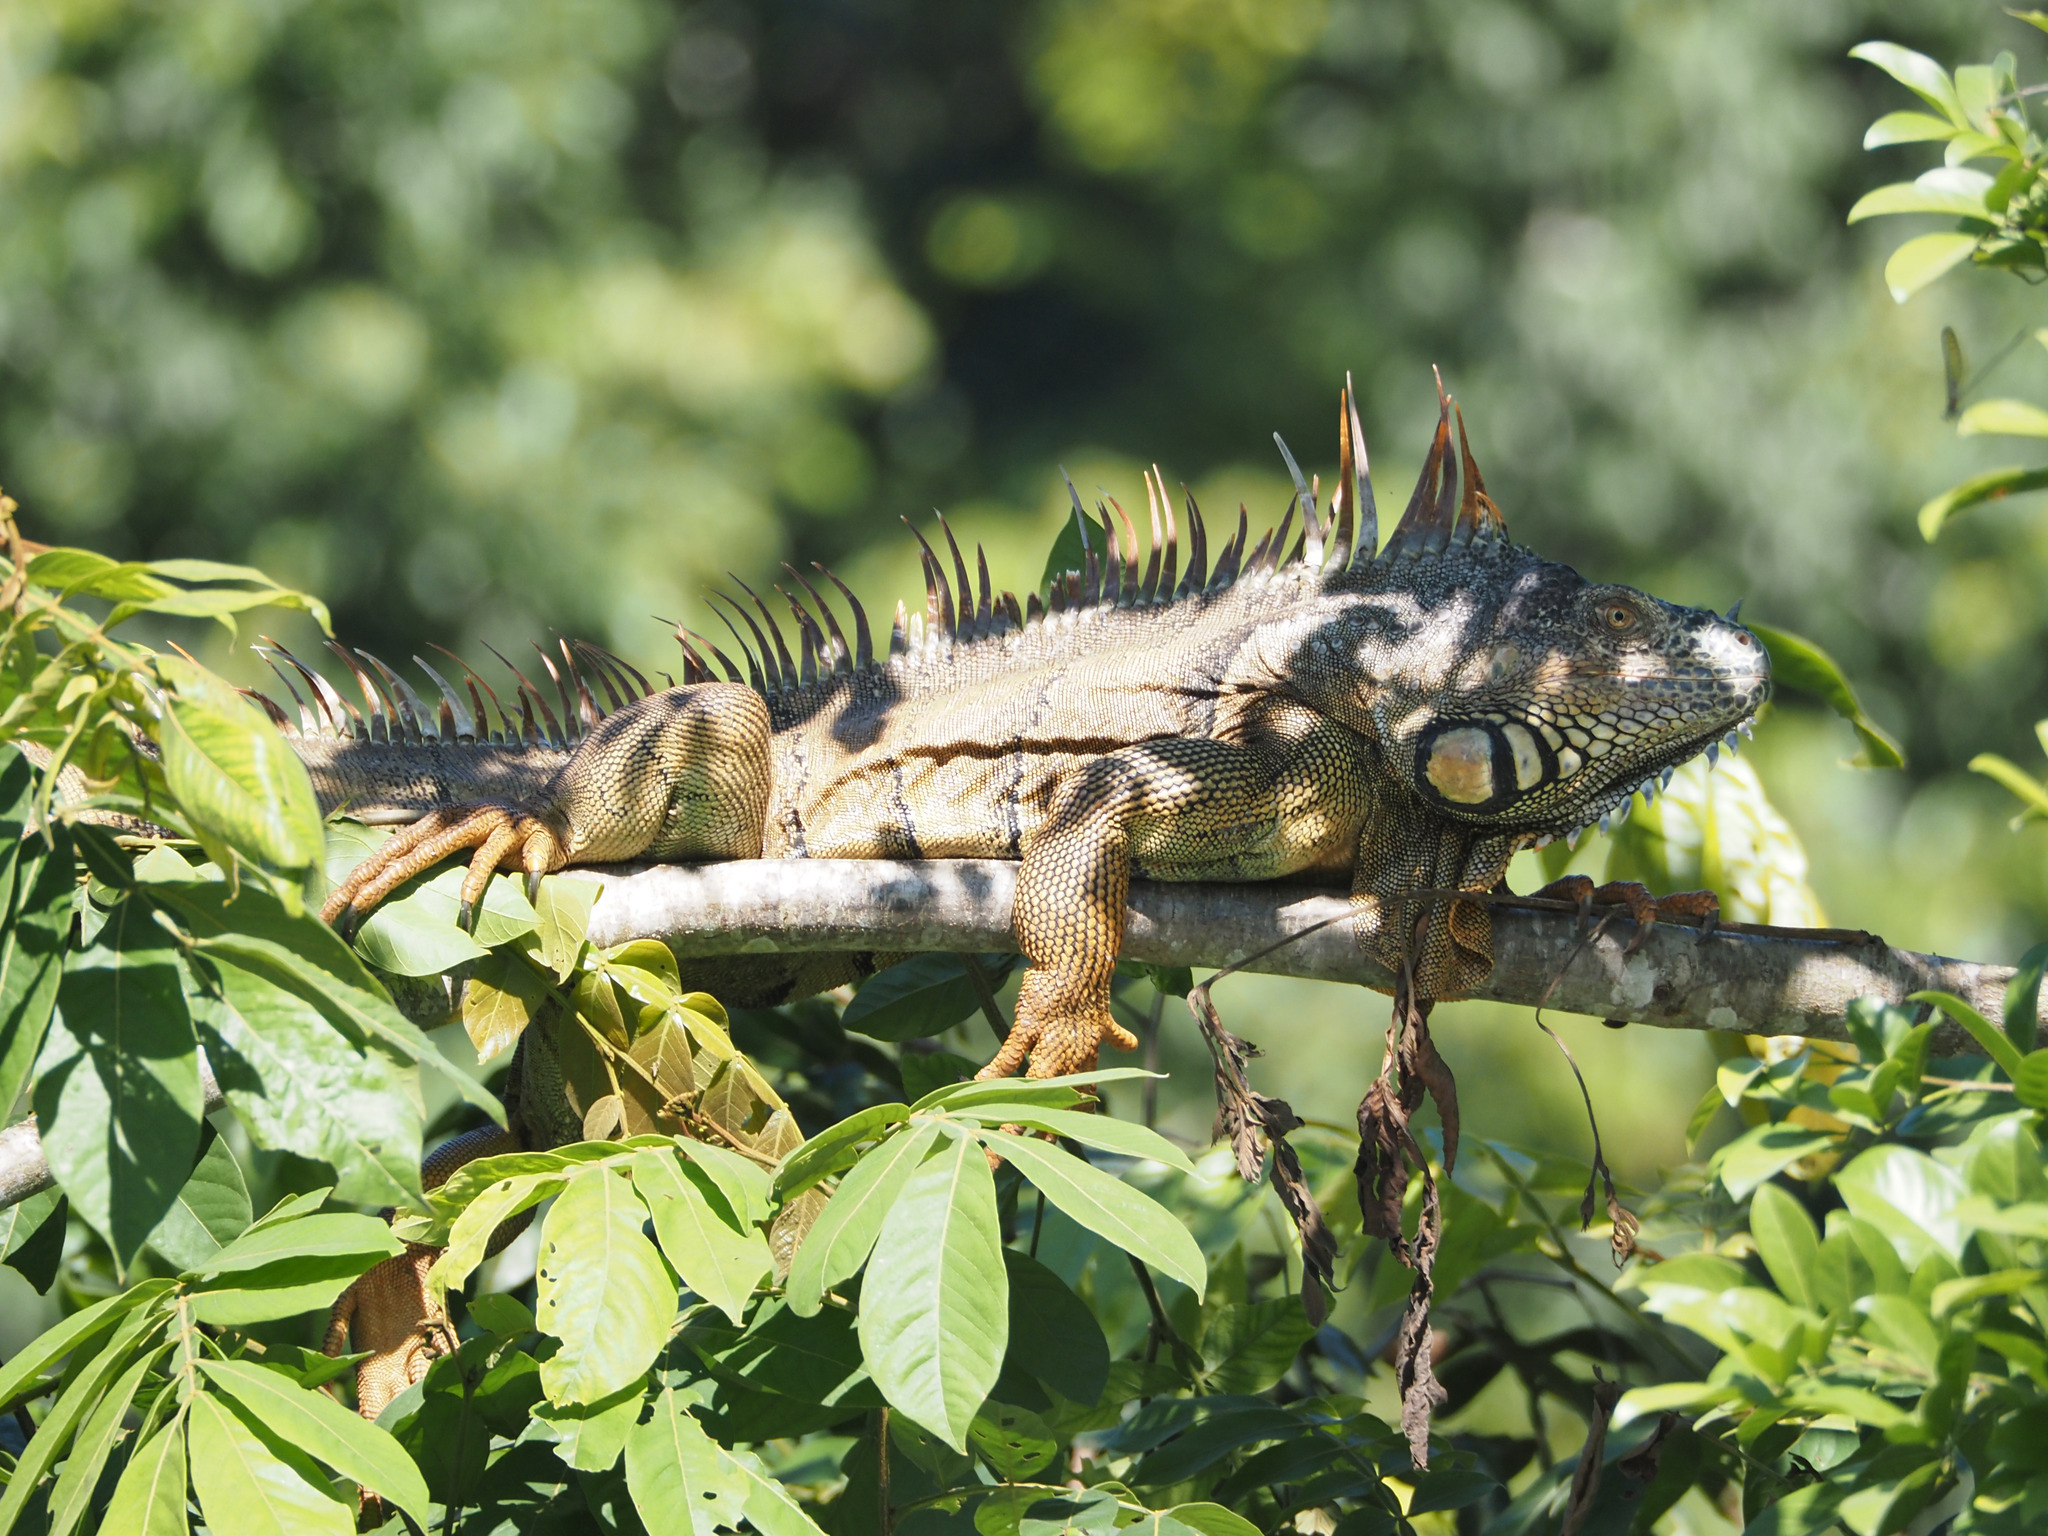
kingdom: Animalia
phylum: Chordata
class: Squamata
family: Iguanidae
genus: Iguana
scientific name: Iguana iguana
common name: Green iguana
